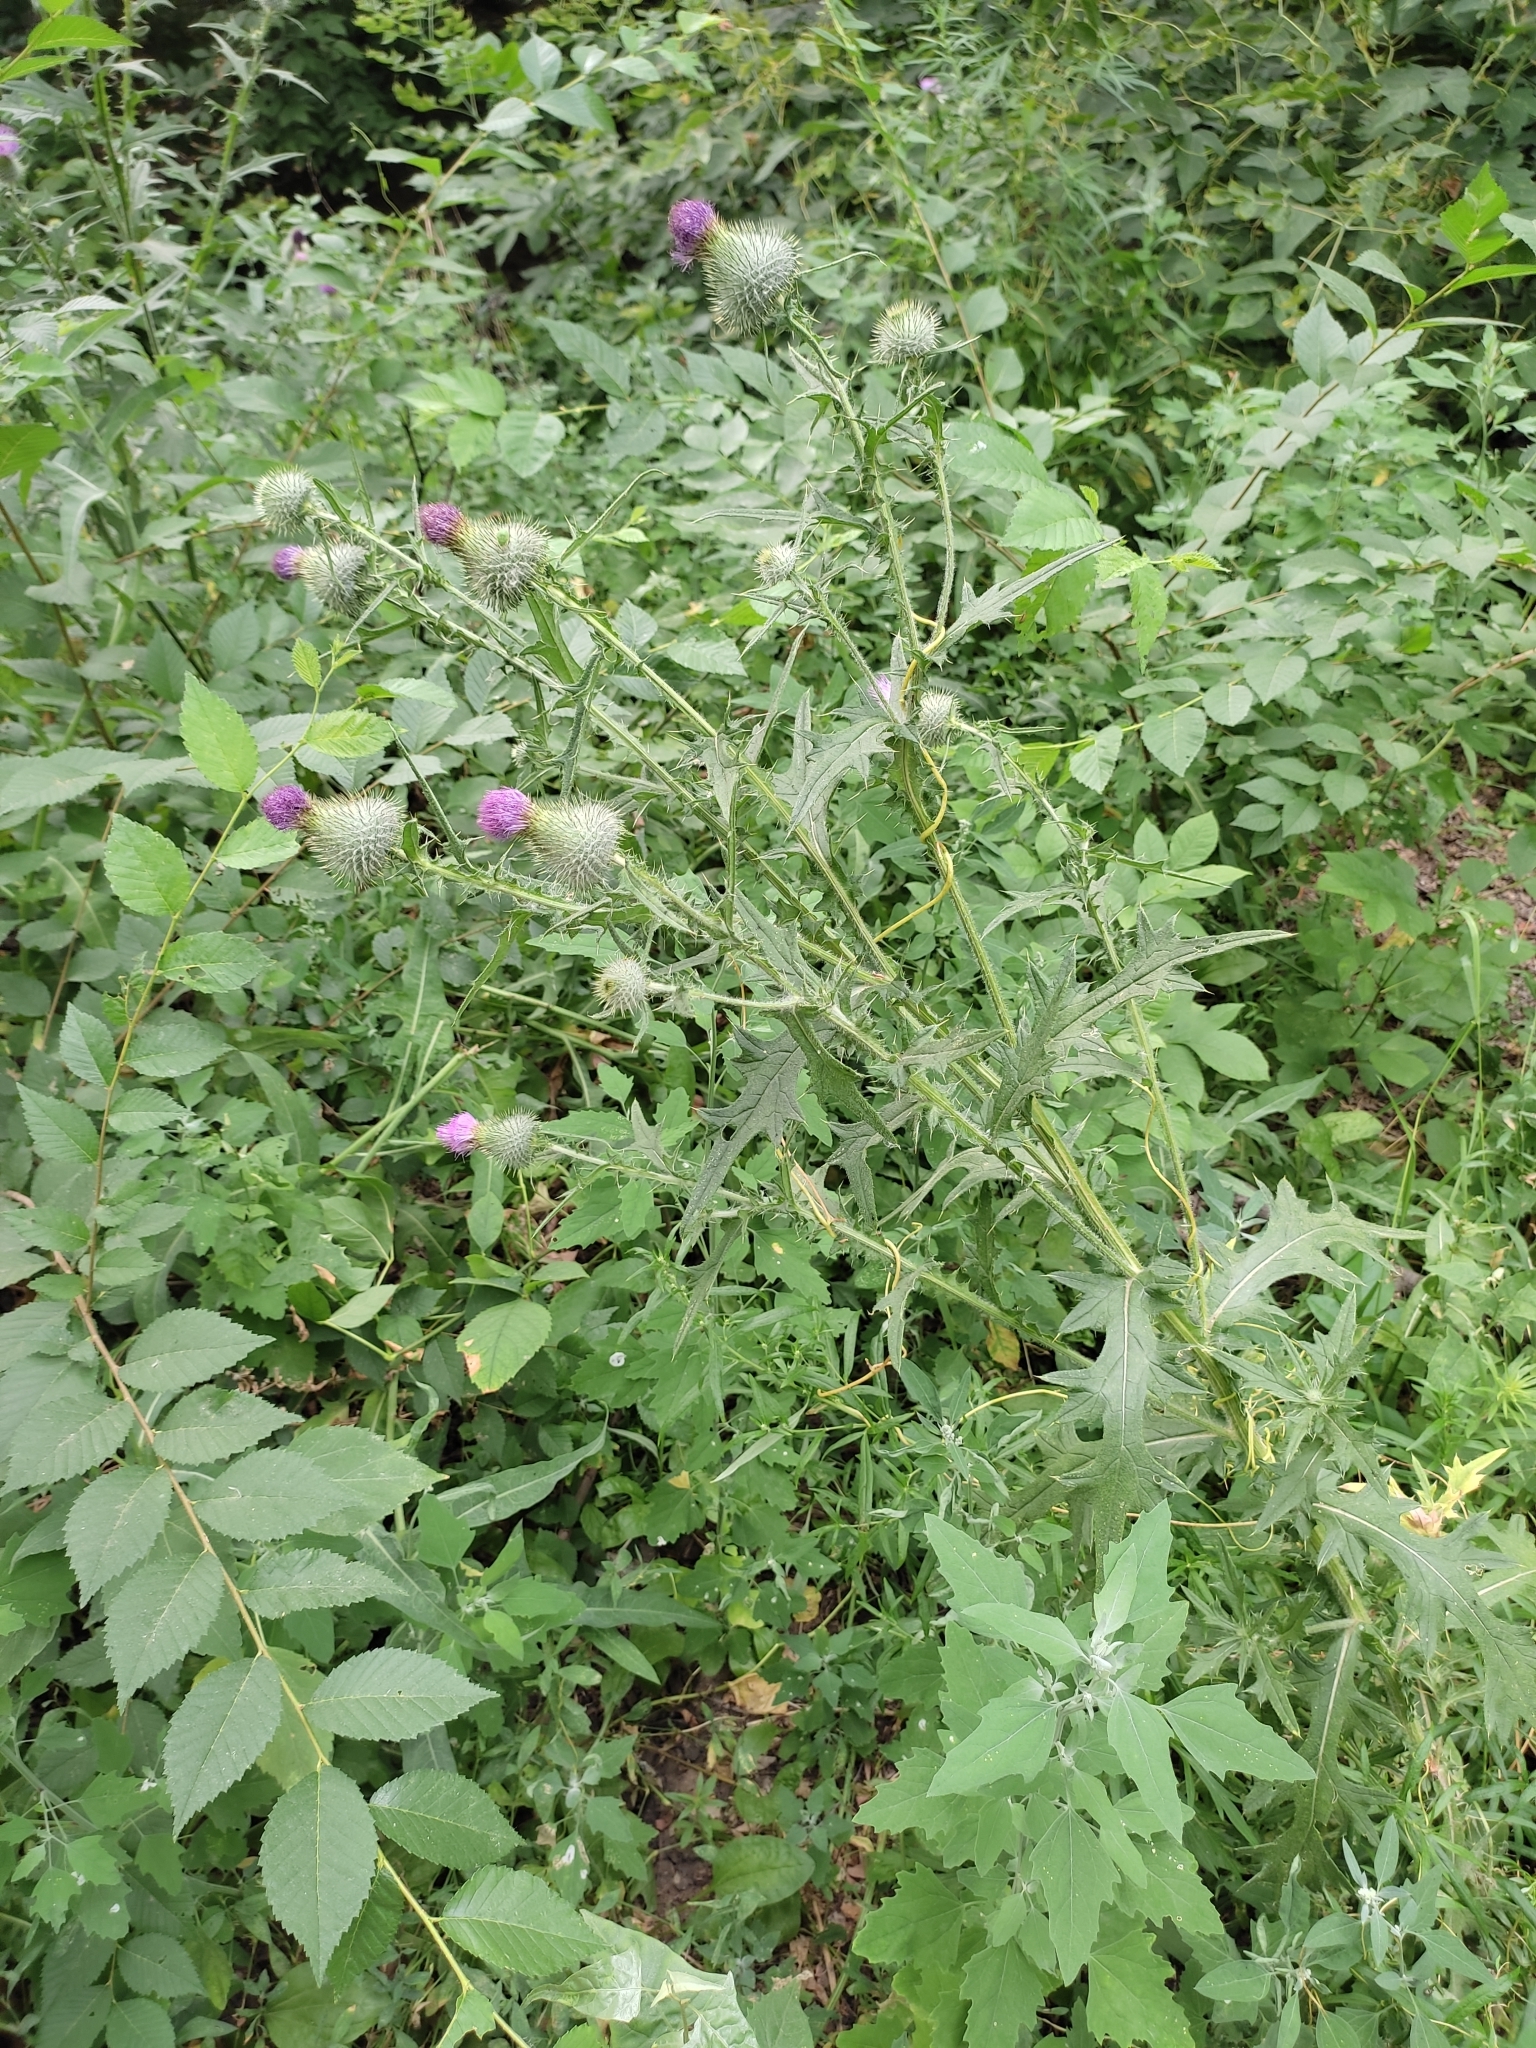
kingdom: Plantae
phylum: Tracheophyta
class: Magnoliopsida
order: Asterales
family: Asteraceae
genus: Cirsium
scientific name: Cirsium vulgare
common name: Bull thistle
